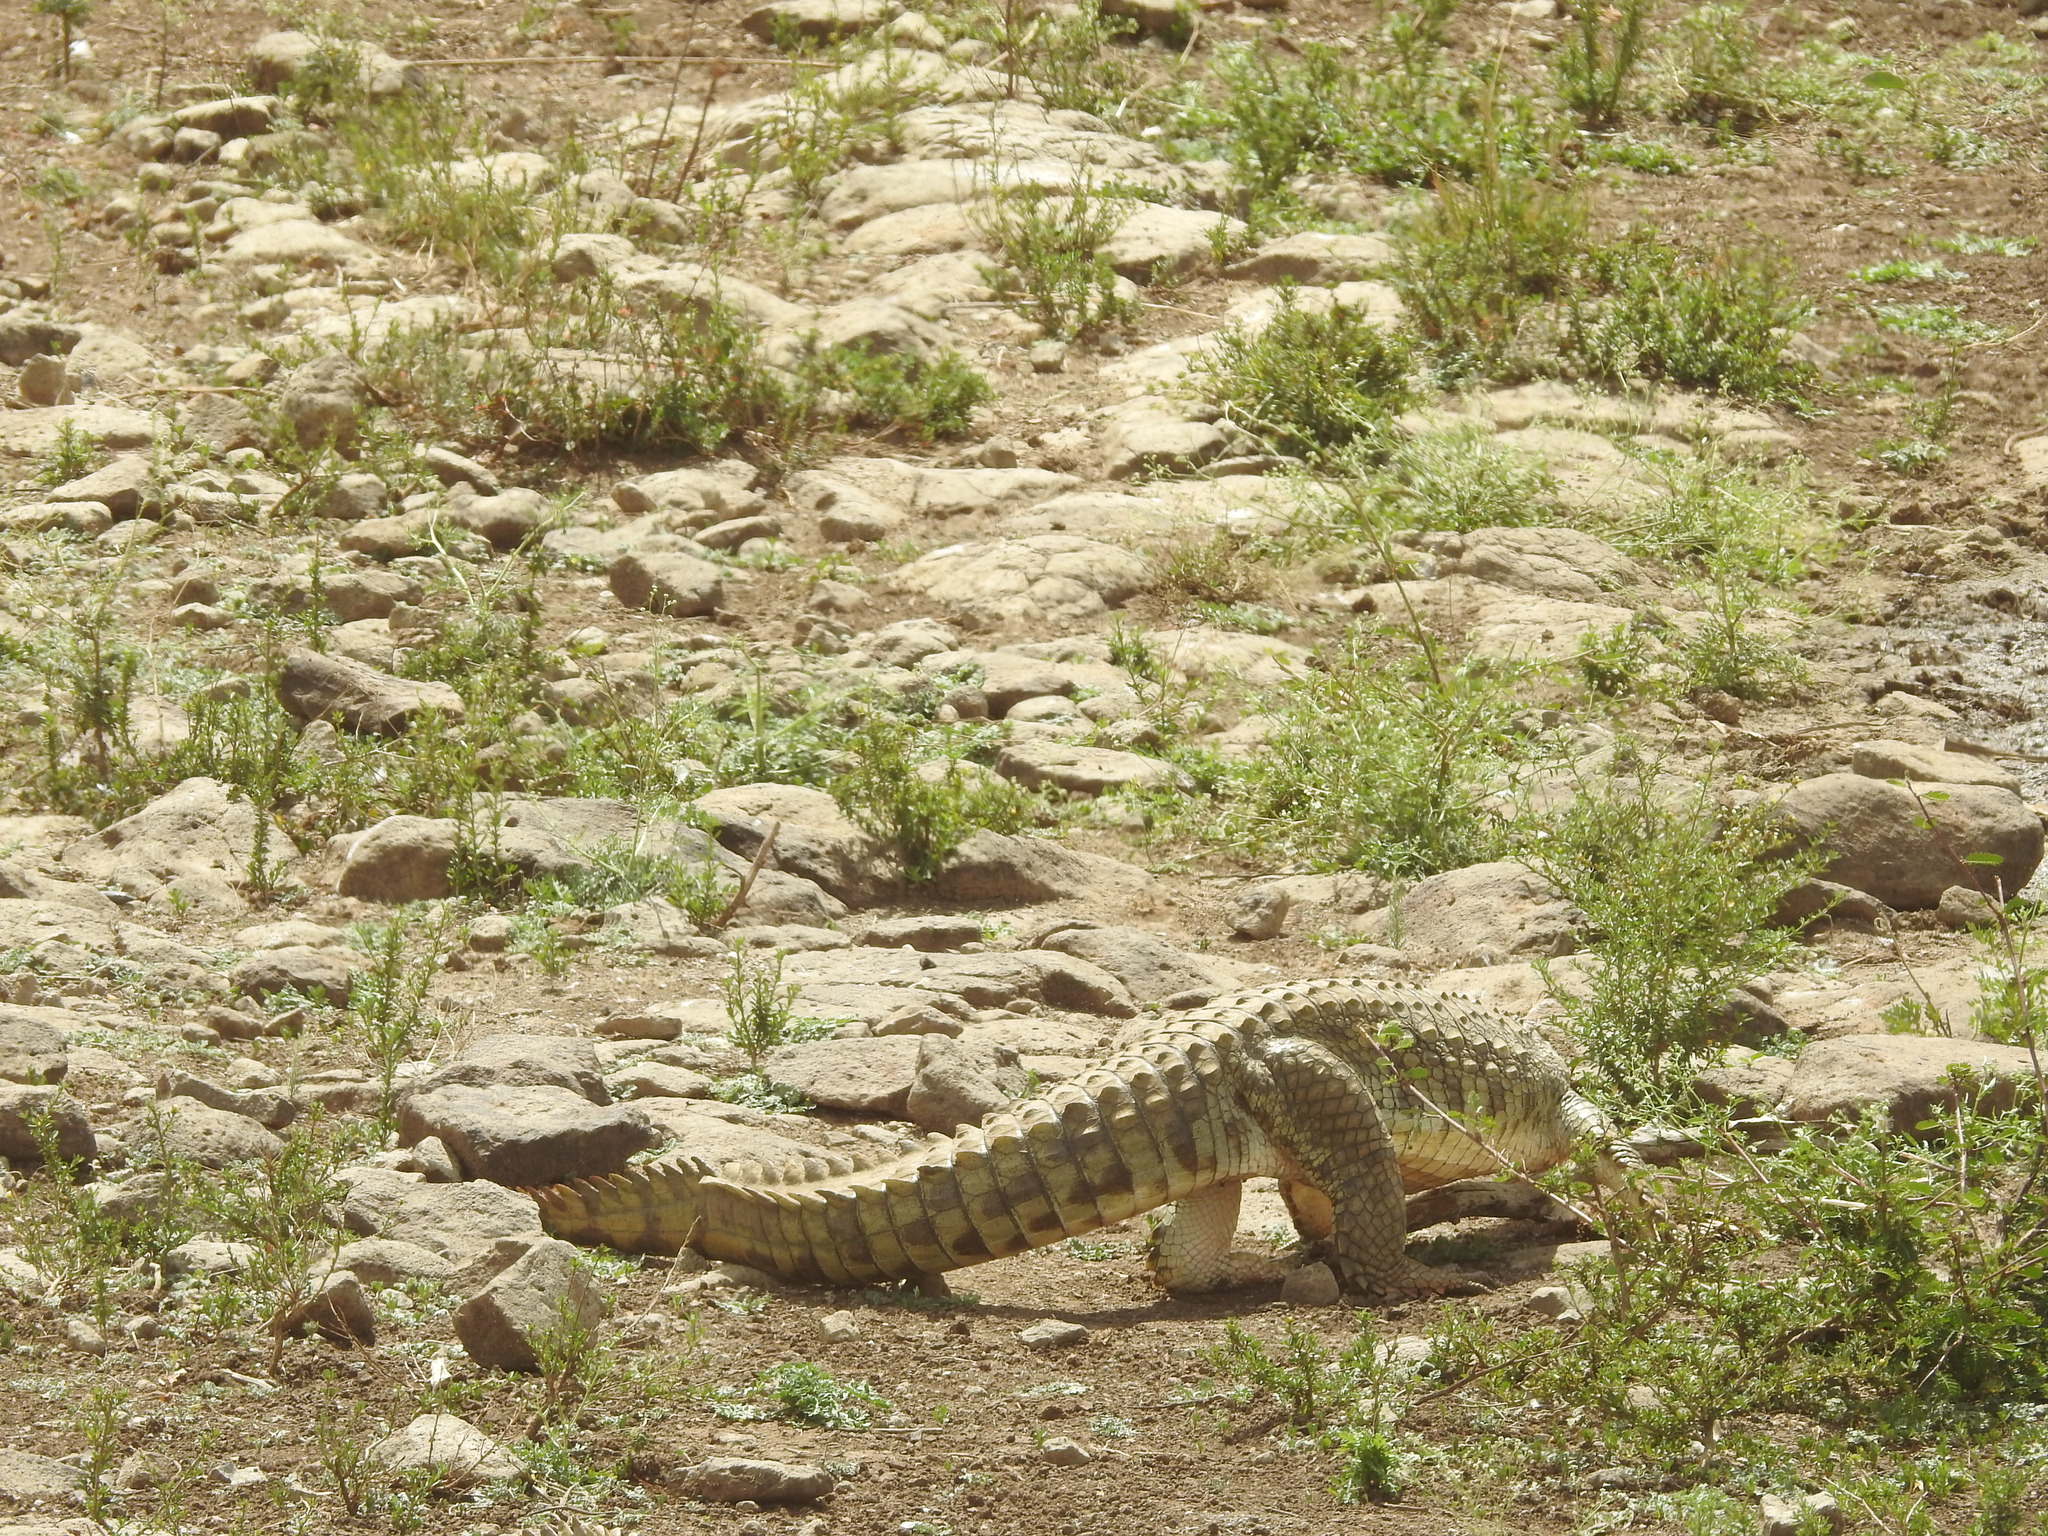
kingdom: Animalia
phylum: Chordata
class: Crocodylia
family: Crocodylidae
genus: Crocodylus
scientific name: Crocodylus niloticus
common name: Nile crocodile
